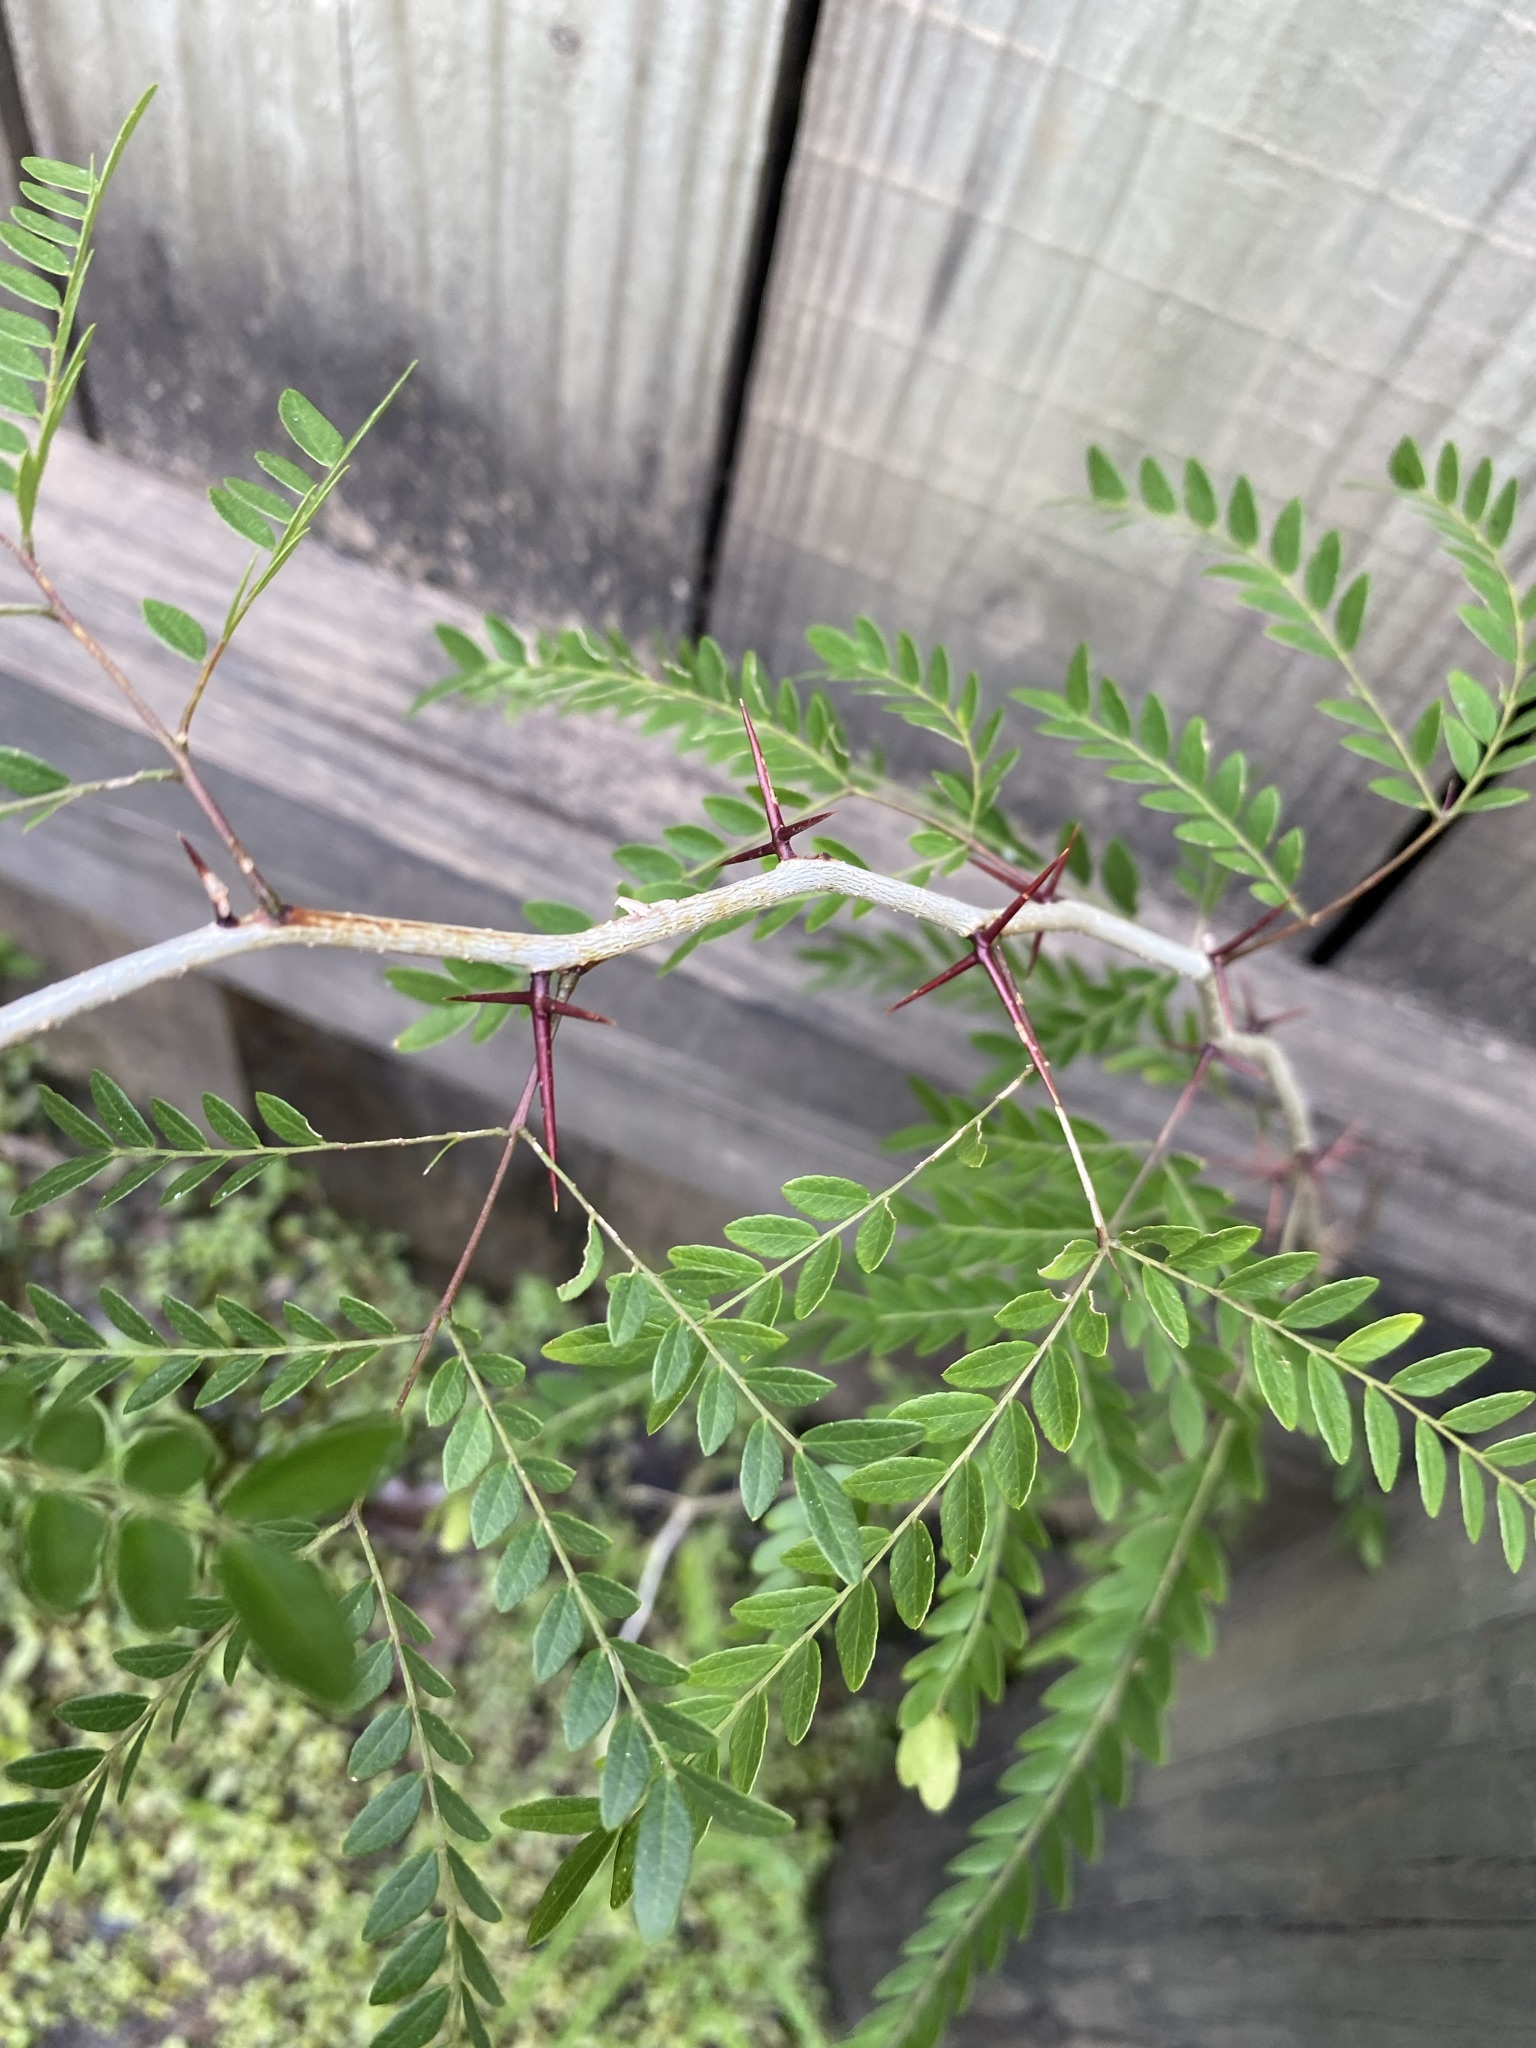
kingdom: Plantae
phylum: Tracheophyta
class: Magnoliopsida
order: Fabales
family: Fabaceae
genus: Gleditsia
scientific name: Gleditsia aquatica
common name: Swamp-locust
